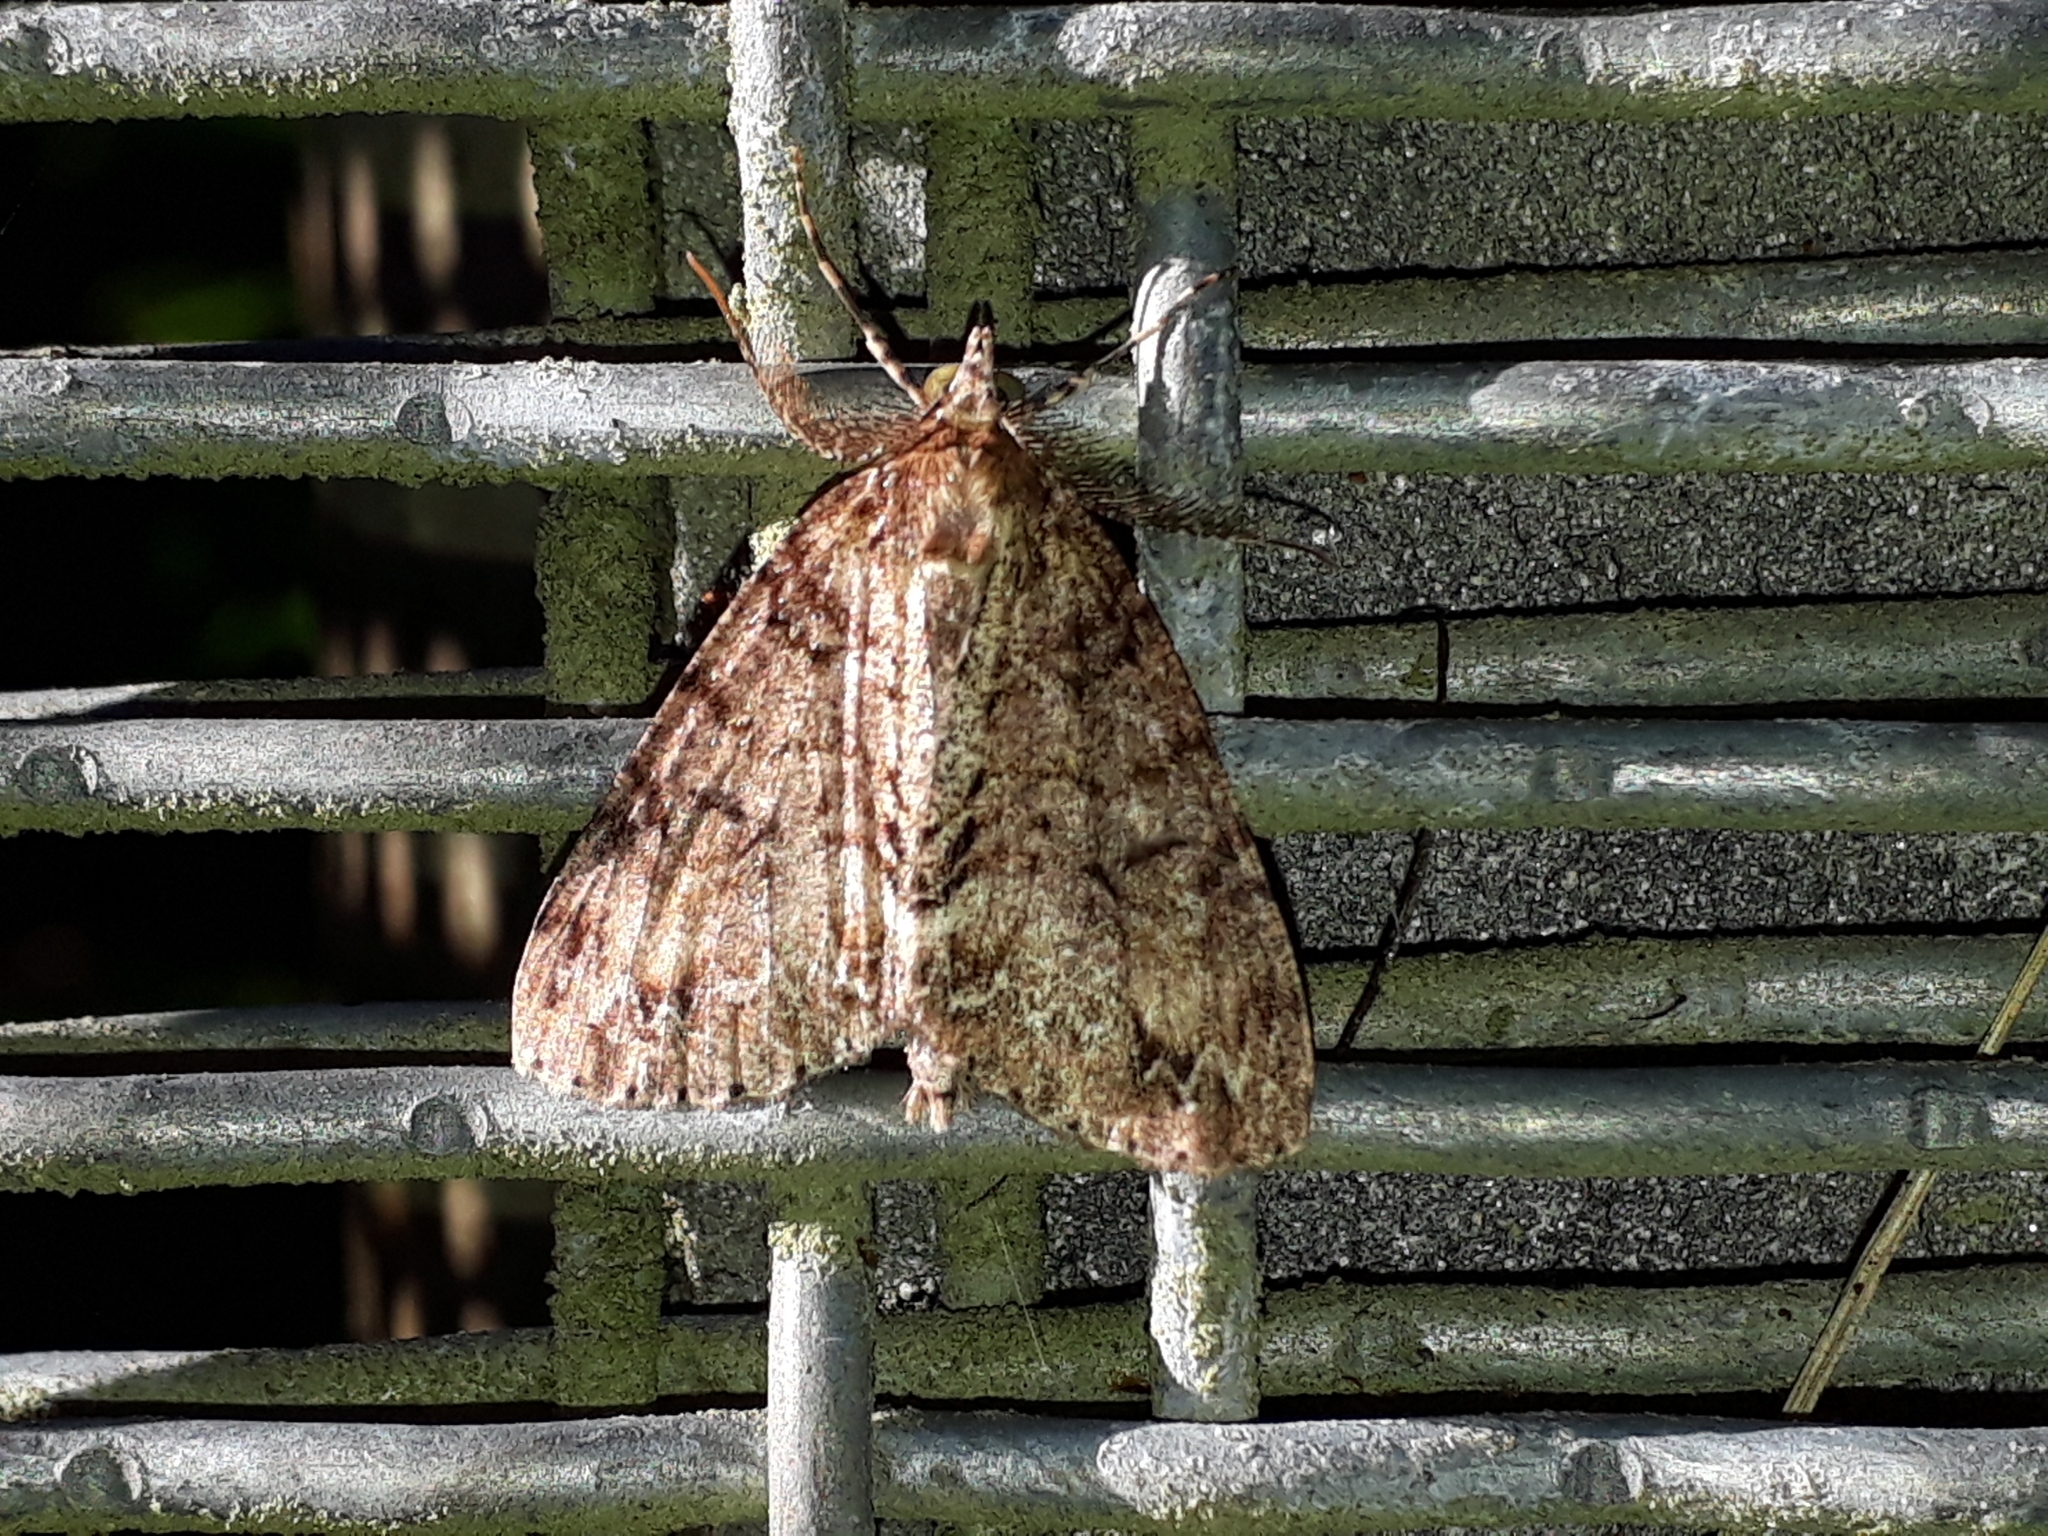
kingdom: Animalia
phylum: Arthropoda
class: Insecta
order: Lepidoptera
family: Geometridae
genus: Pseudocoremia
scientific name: Pseudocoremia suavis
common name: Common forest looper
